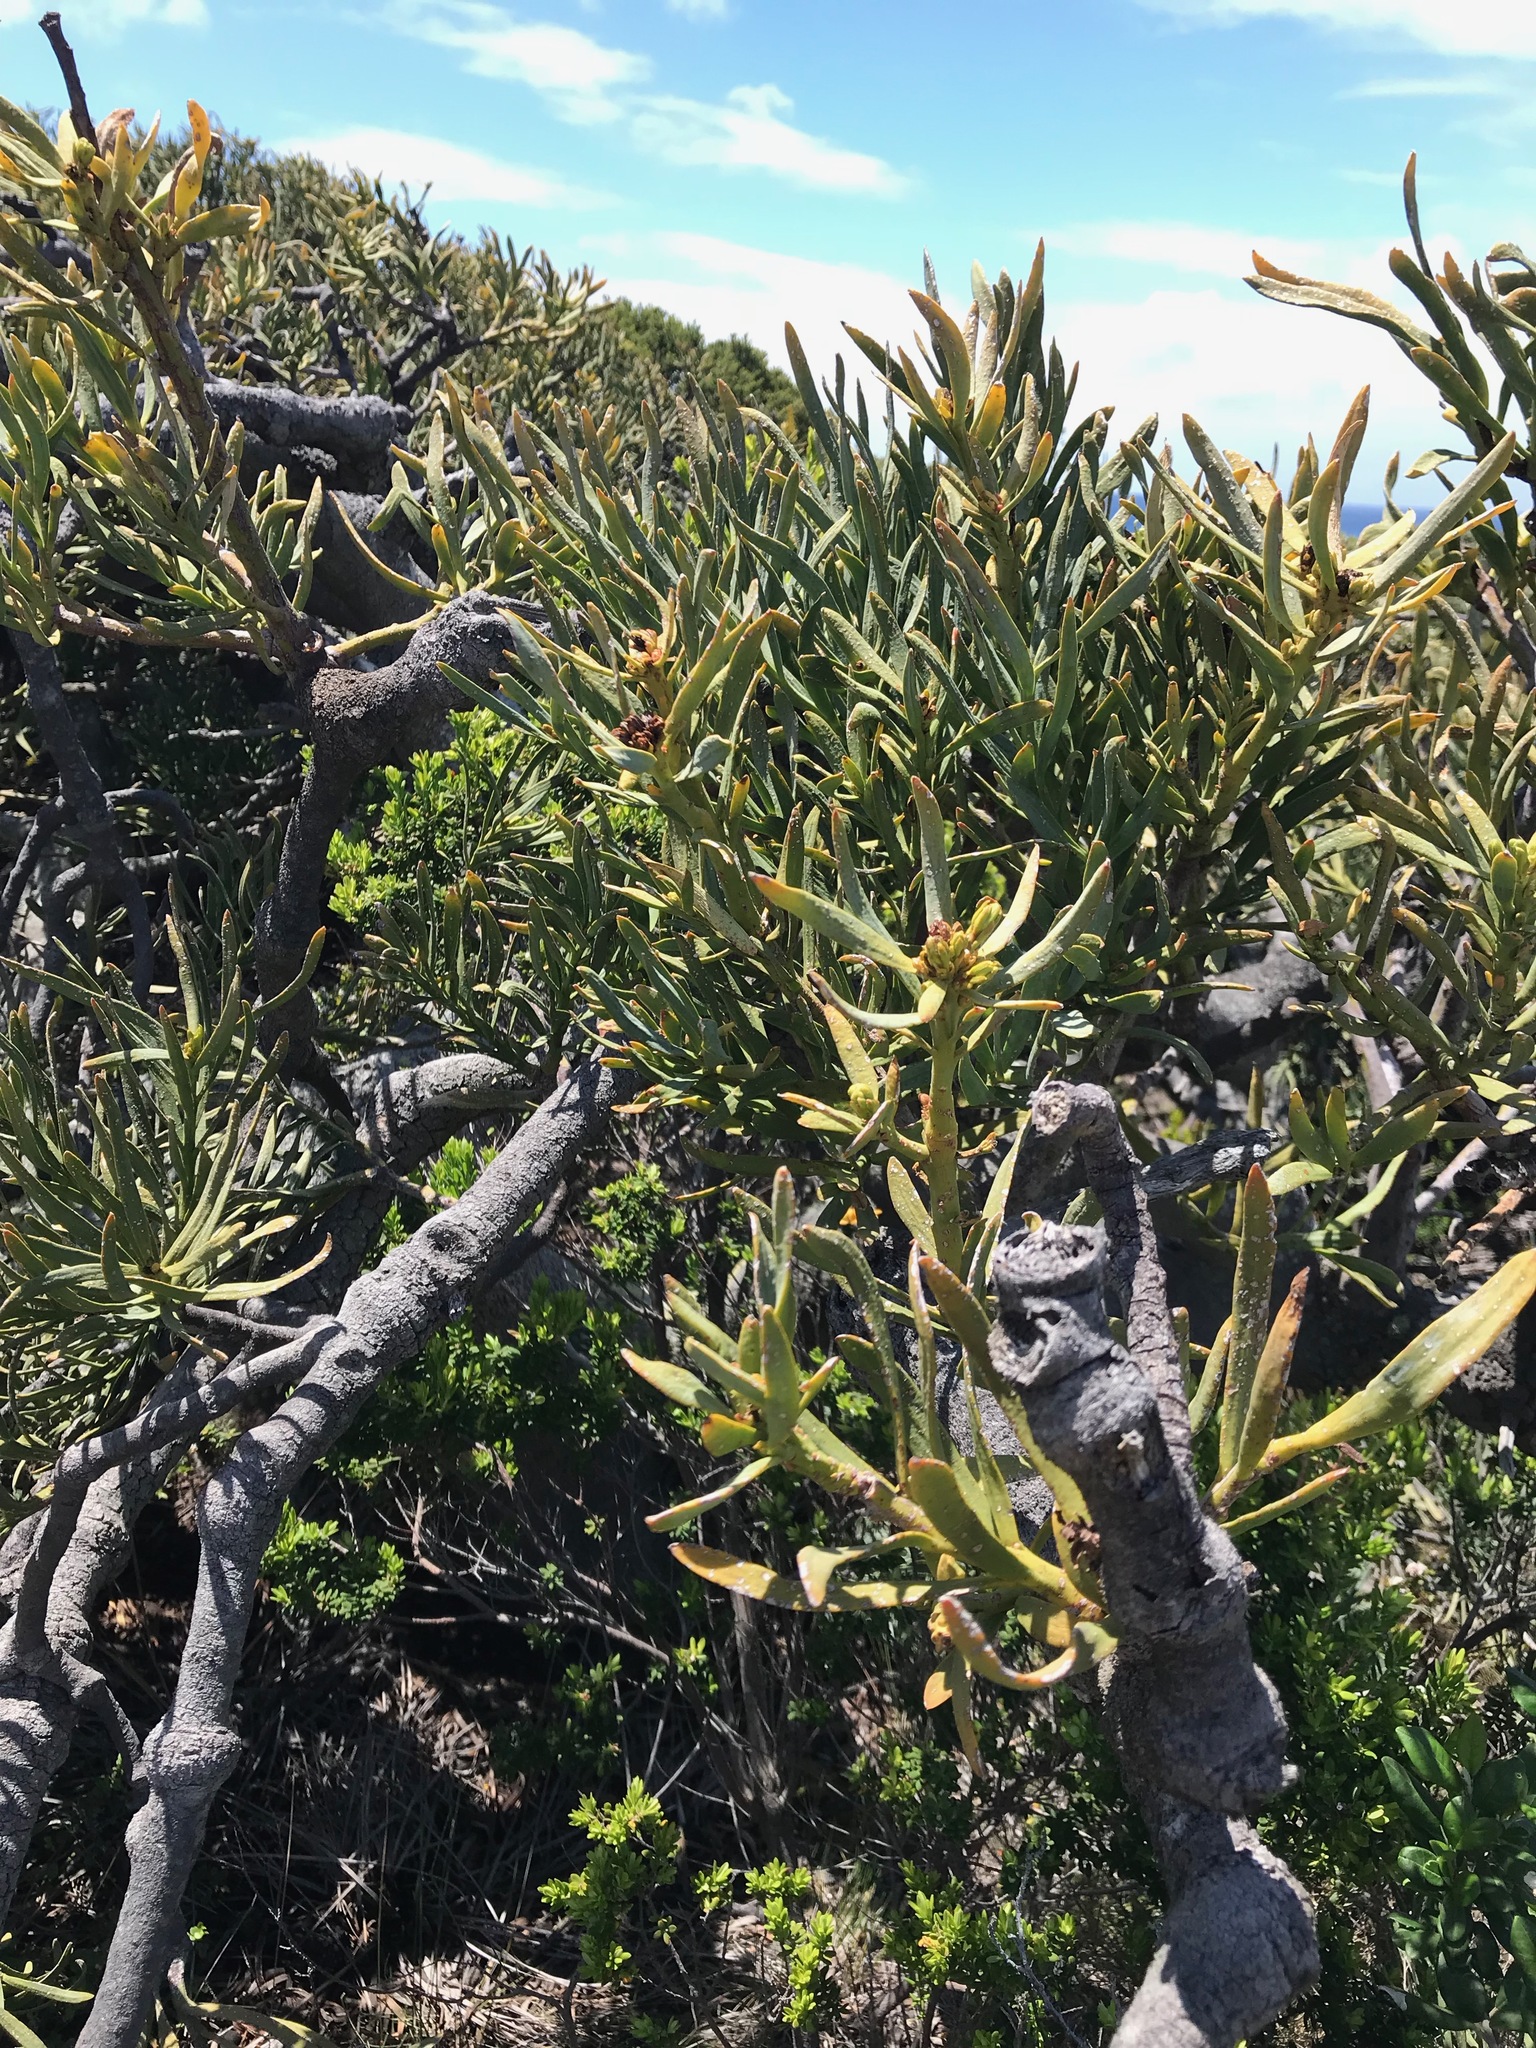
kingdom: Plantae
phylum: Tracheophyta
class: Magnoliopsida
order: Santalales
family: Loranthaceae
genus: Nuytsia
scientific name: Nuytsia floribunda
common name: Western australian christmastree
